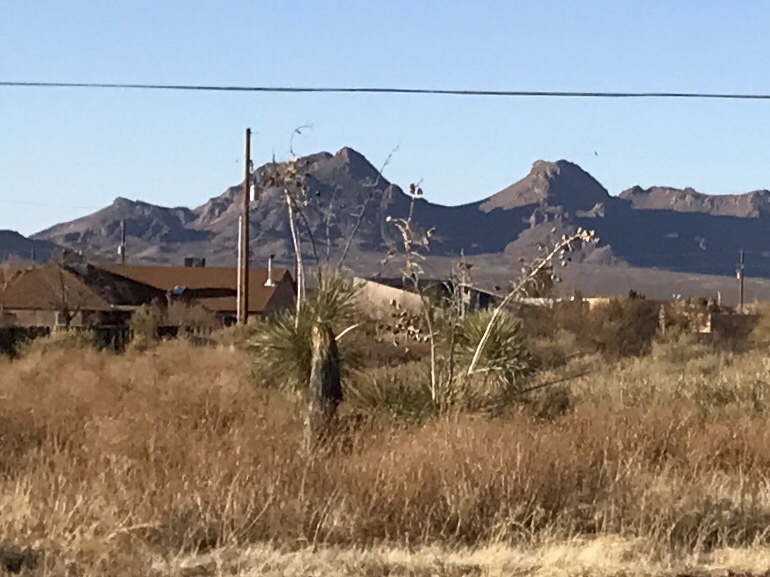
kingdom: Plantae
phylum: Tracheophyta
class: Liliopsida
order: Asparagales
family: Asparagaceae
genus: Yucca
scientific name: Yucca elata
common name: Palmella
